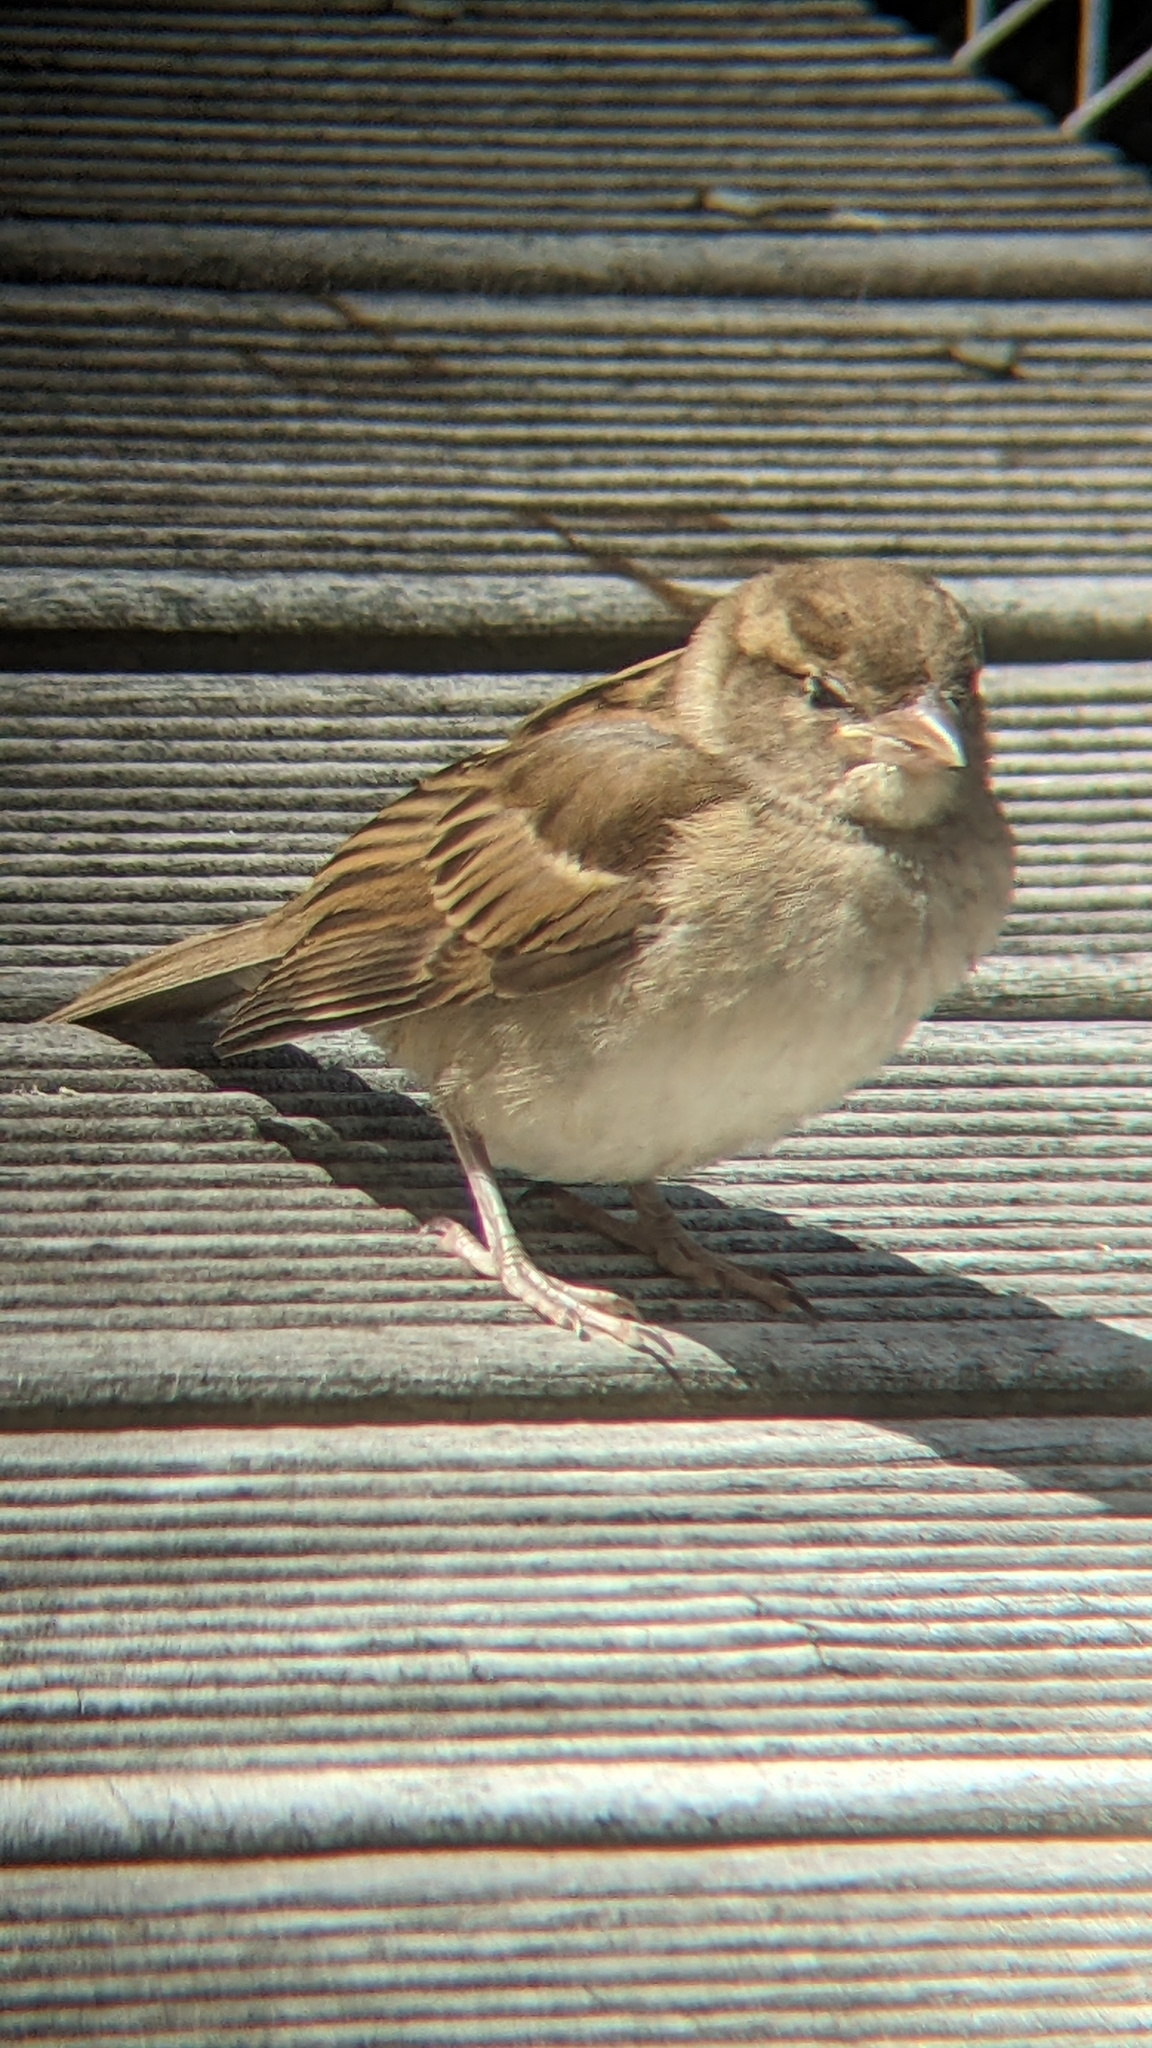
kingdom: Animalia
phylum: Chordata
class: Aves
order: Passeriformes
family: Passeridae
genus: Passer
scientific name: Passer domesticus
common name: House sparrow
